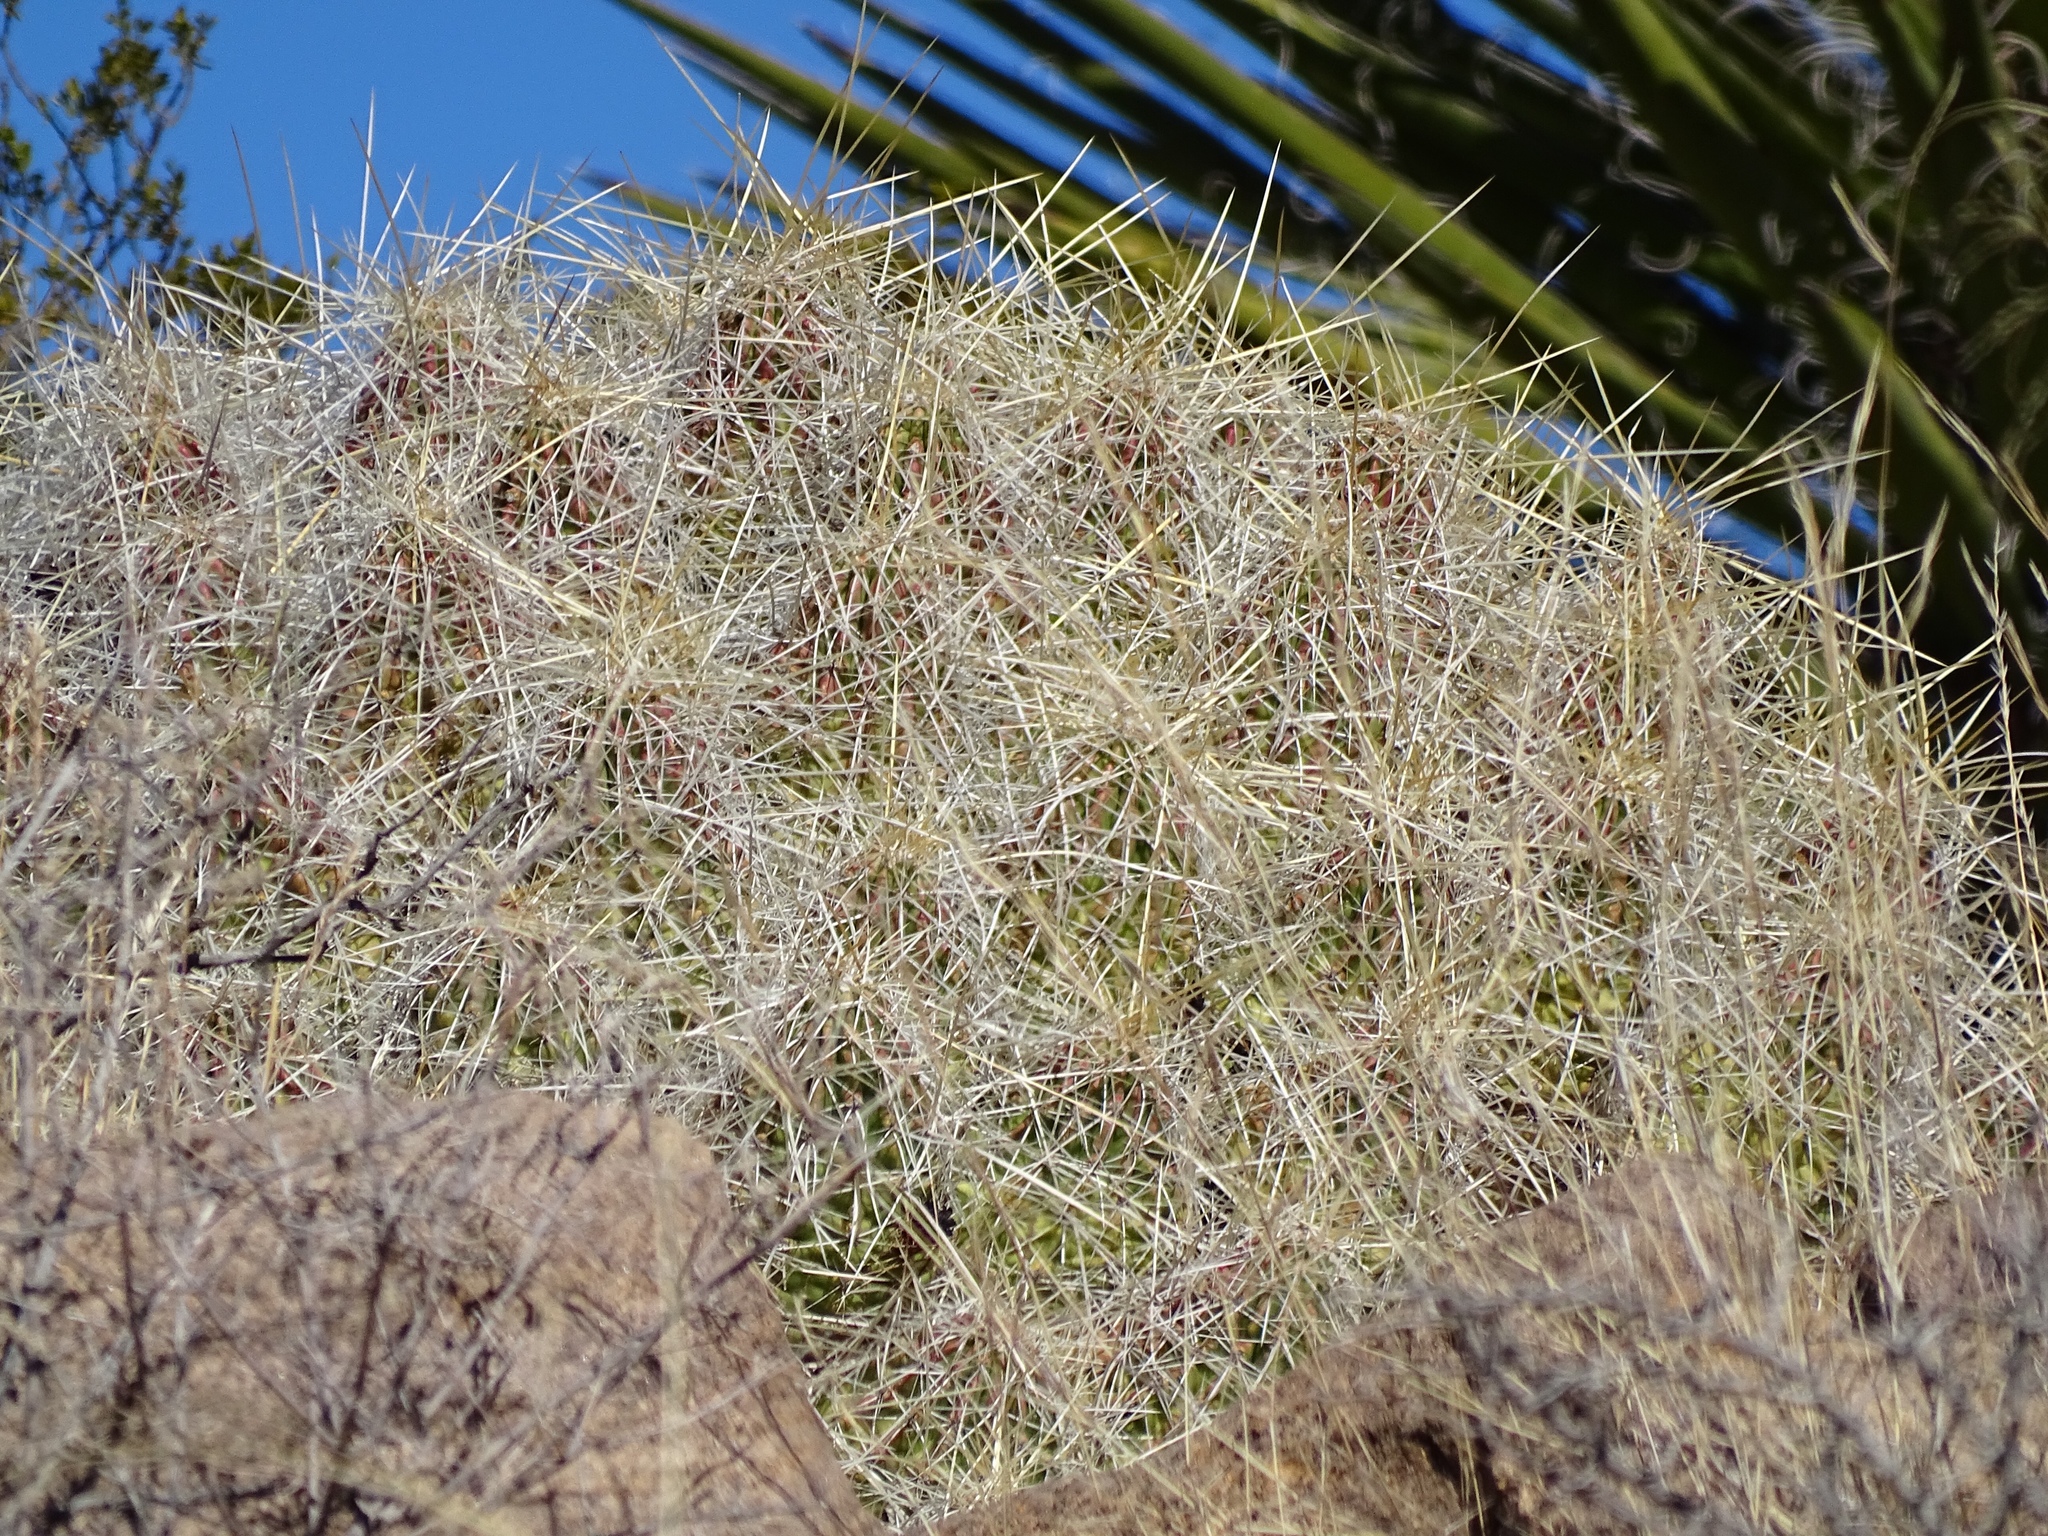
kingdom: Plantae
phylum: Tracheophyta
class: Magnoliopsida
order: Caryophyllales
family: Cactaceae
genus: Echinocereus
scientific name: Echinocereus stramineus
